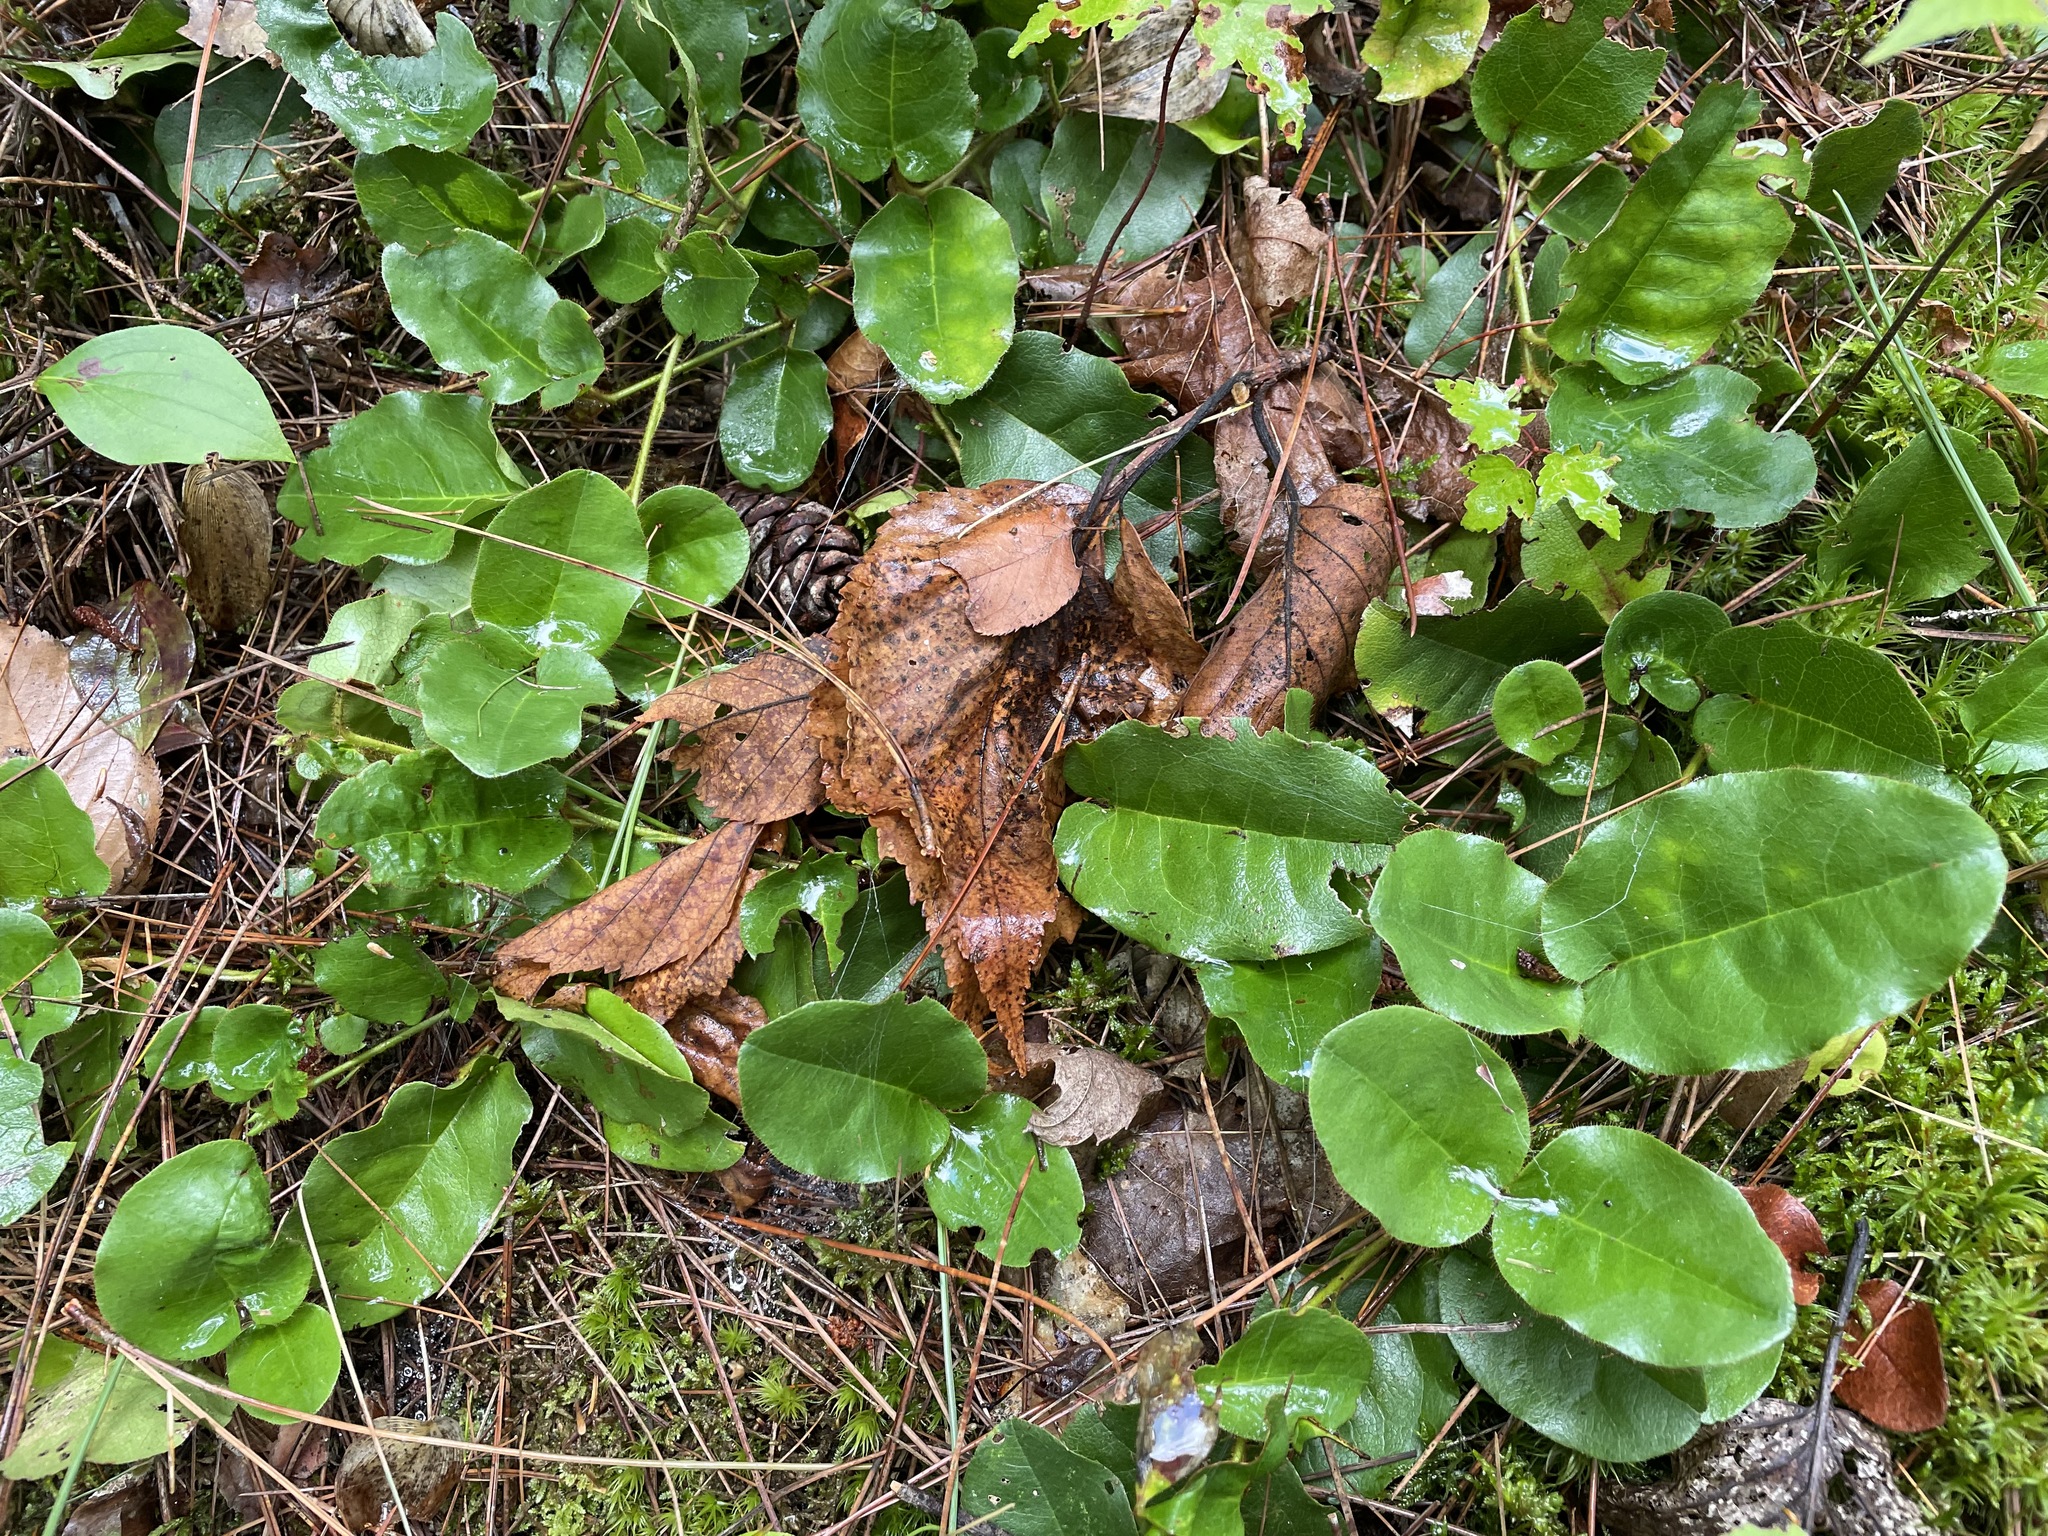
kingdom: Plantae
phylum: Tracheophyta
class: Magnoliopsida
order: Ericales
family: Ericaceae
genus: Epigaea
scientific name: Epigaea repens
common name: Gravelroot
